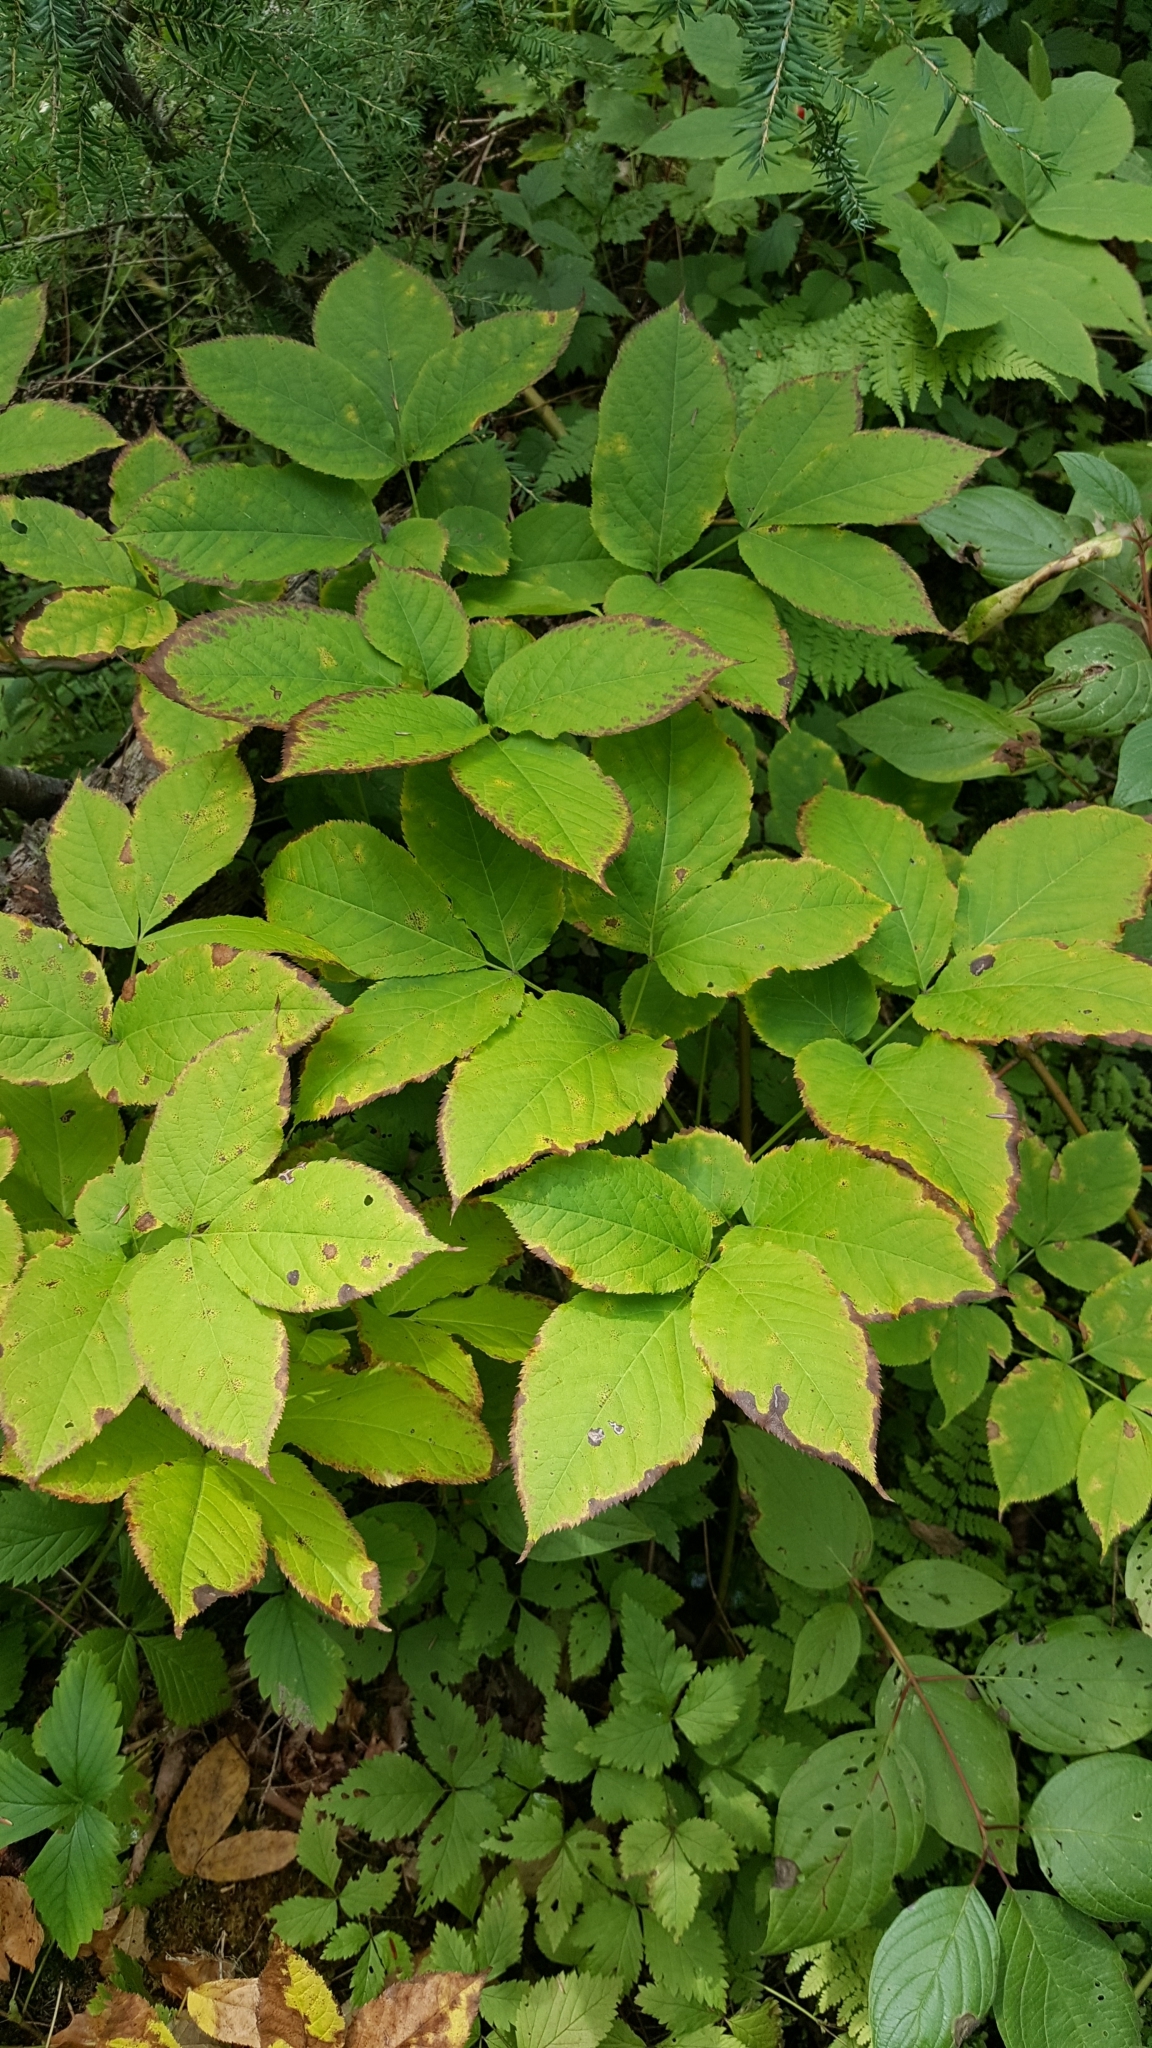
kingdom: Plantae
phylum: Tracheophyta
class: Magnoliopsida
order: Apiales
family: Araliaceae
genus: Aralia
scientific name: Aralia nudicaulis
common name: Wild sarsaparilla
